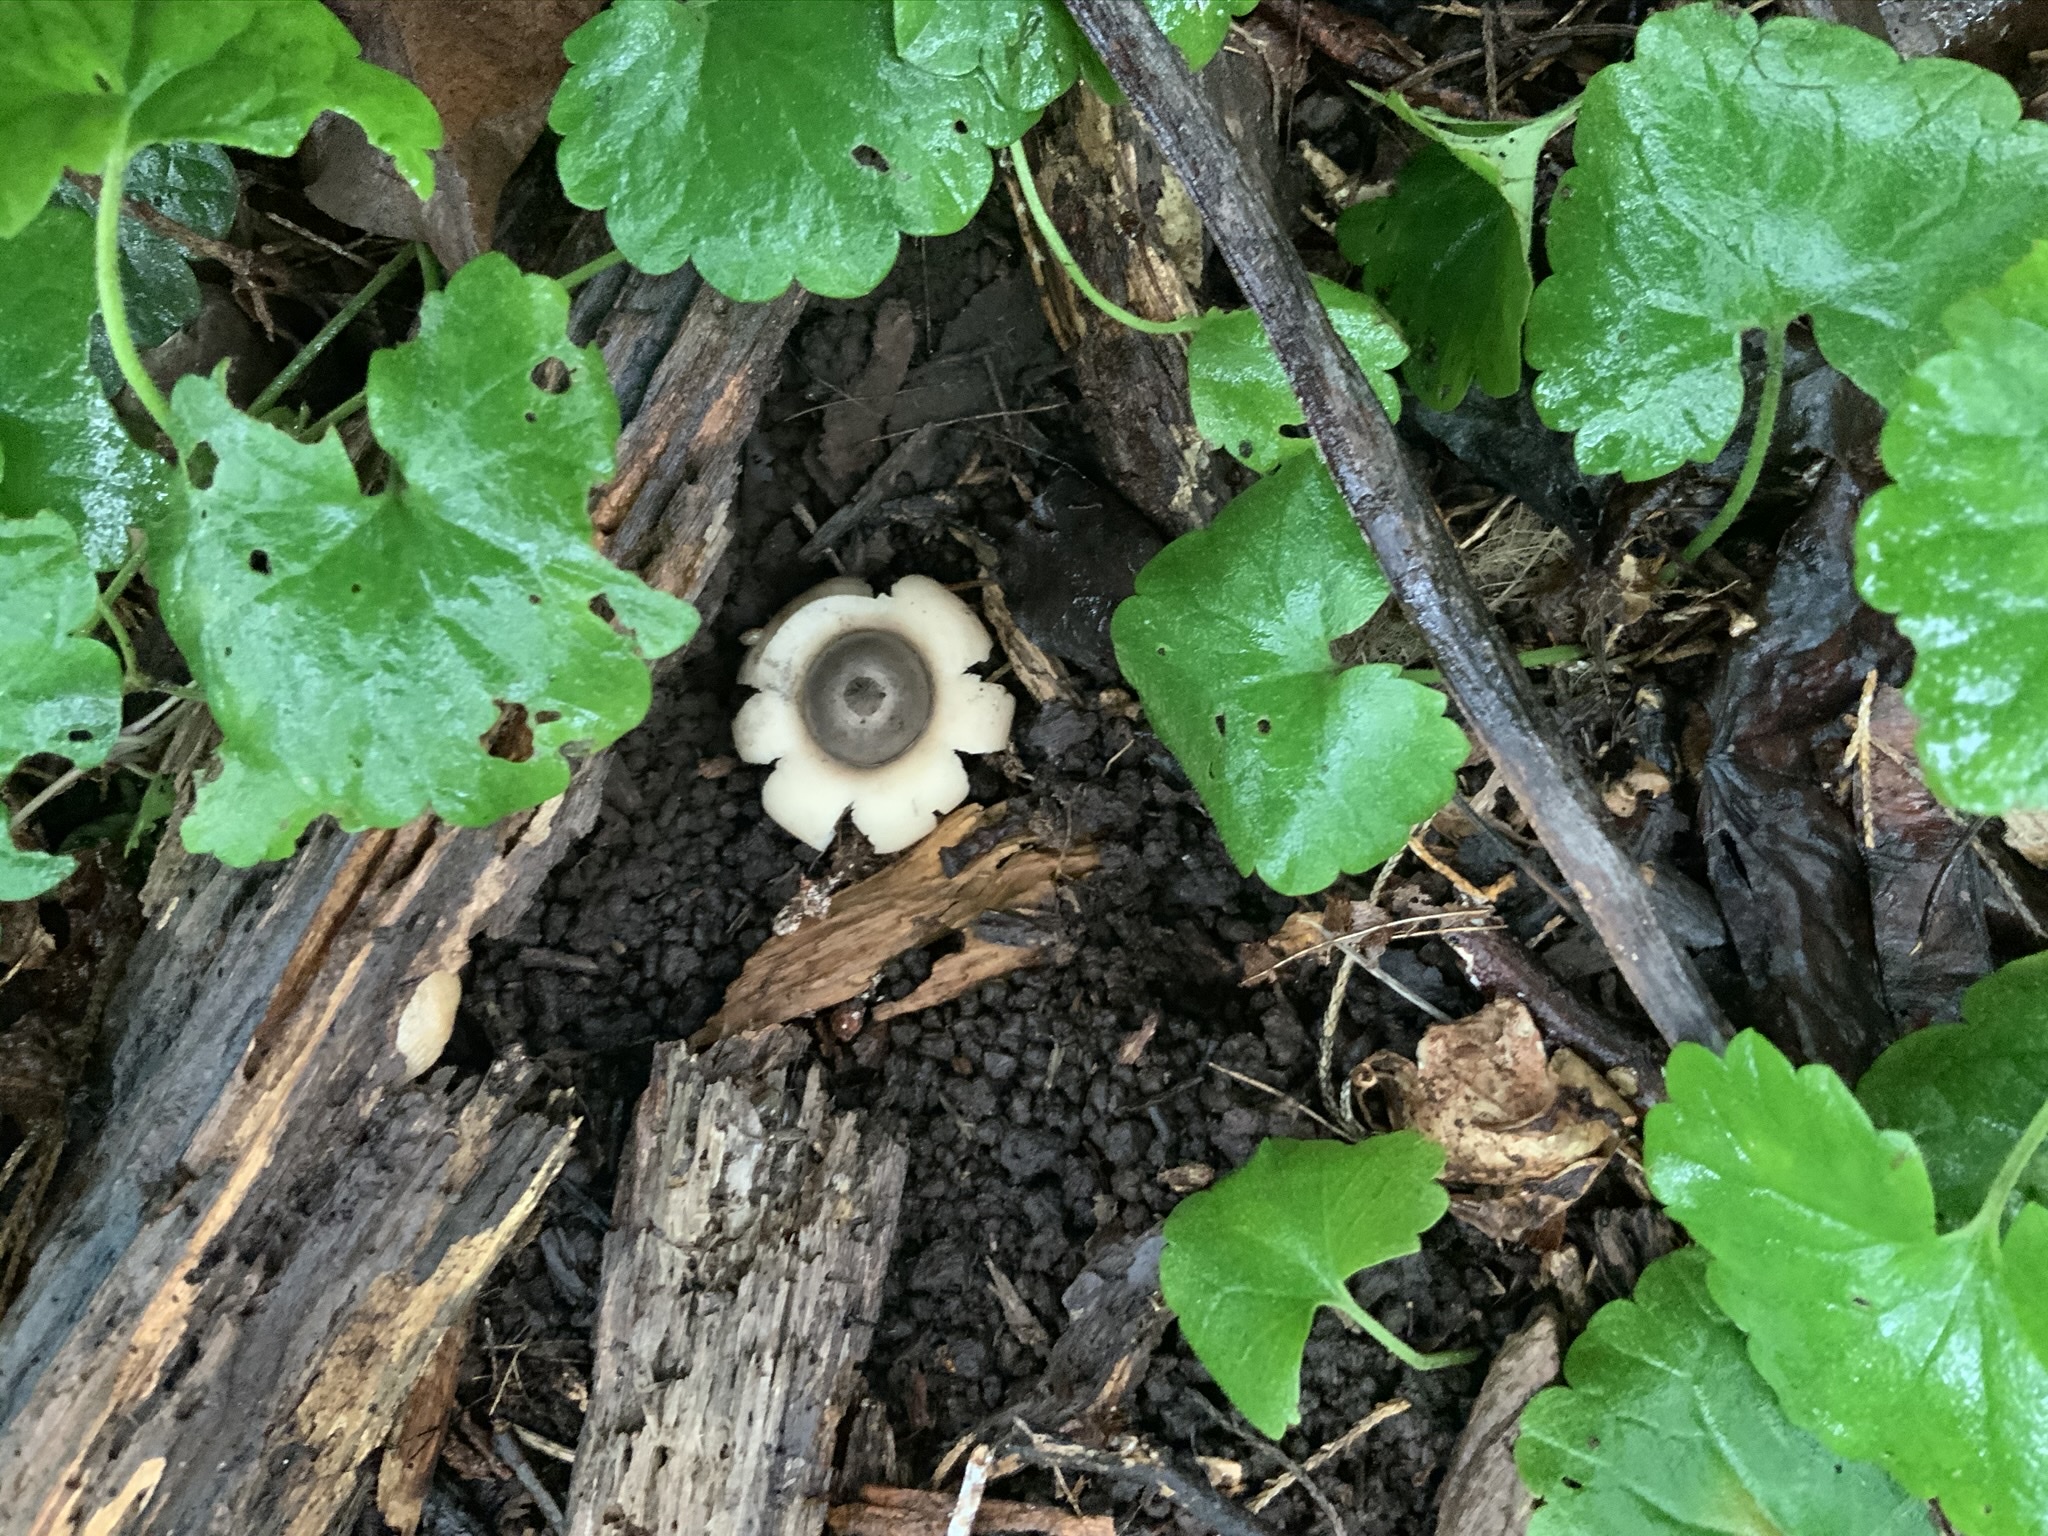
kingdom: Fungi
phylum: Basidiomycota
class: Agaricomycetes
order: Geastrales
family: Geastraceae
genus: Geastrum
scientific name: Geastrum saccatum
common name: Rounded earthstar
